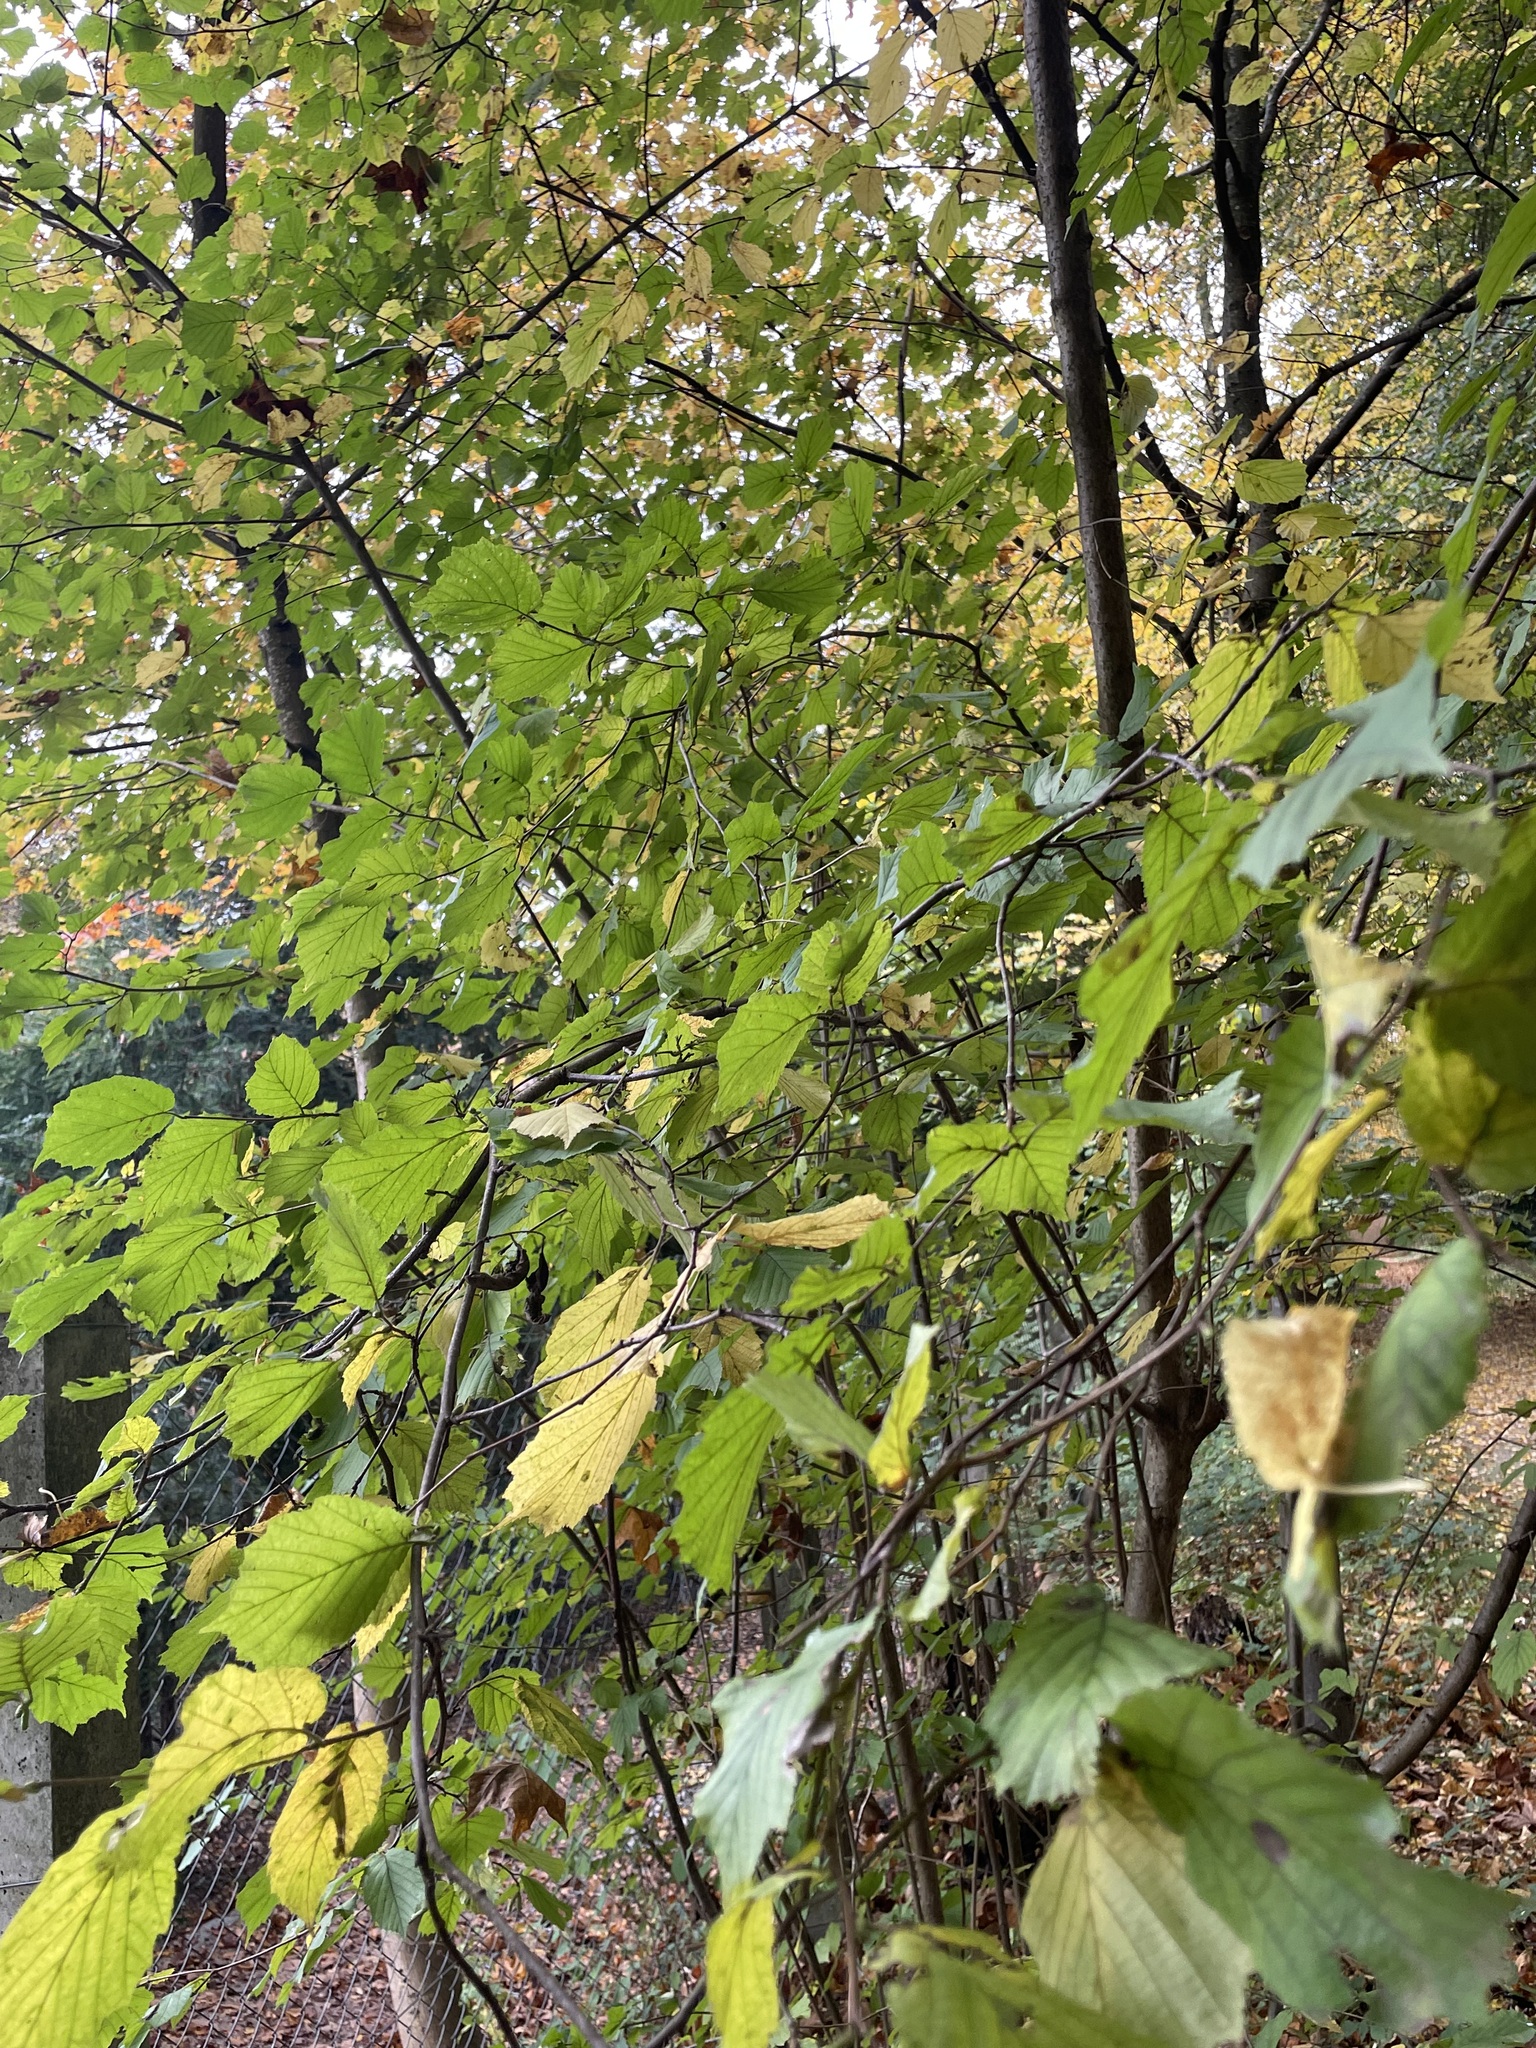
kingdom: Plantae
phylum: Tracheophyta
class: Magnoliopsida
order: Fagales
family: Betulaceae
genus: Corylus
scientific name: Corylus avellana
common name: European hazel
